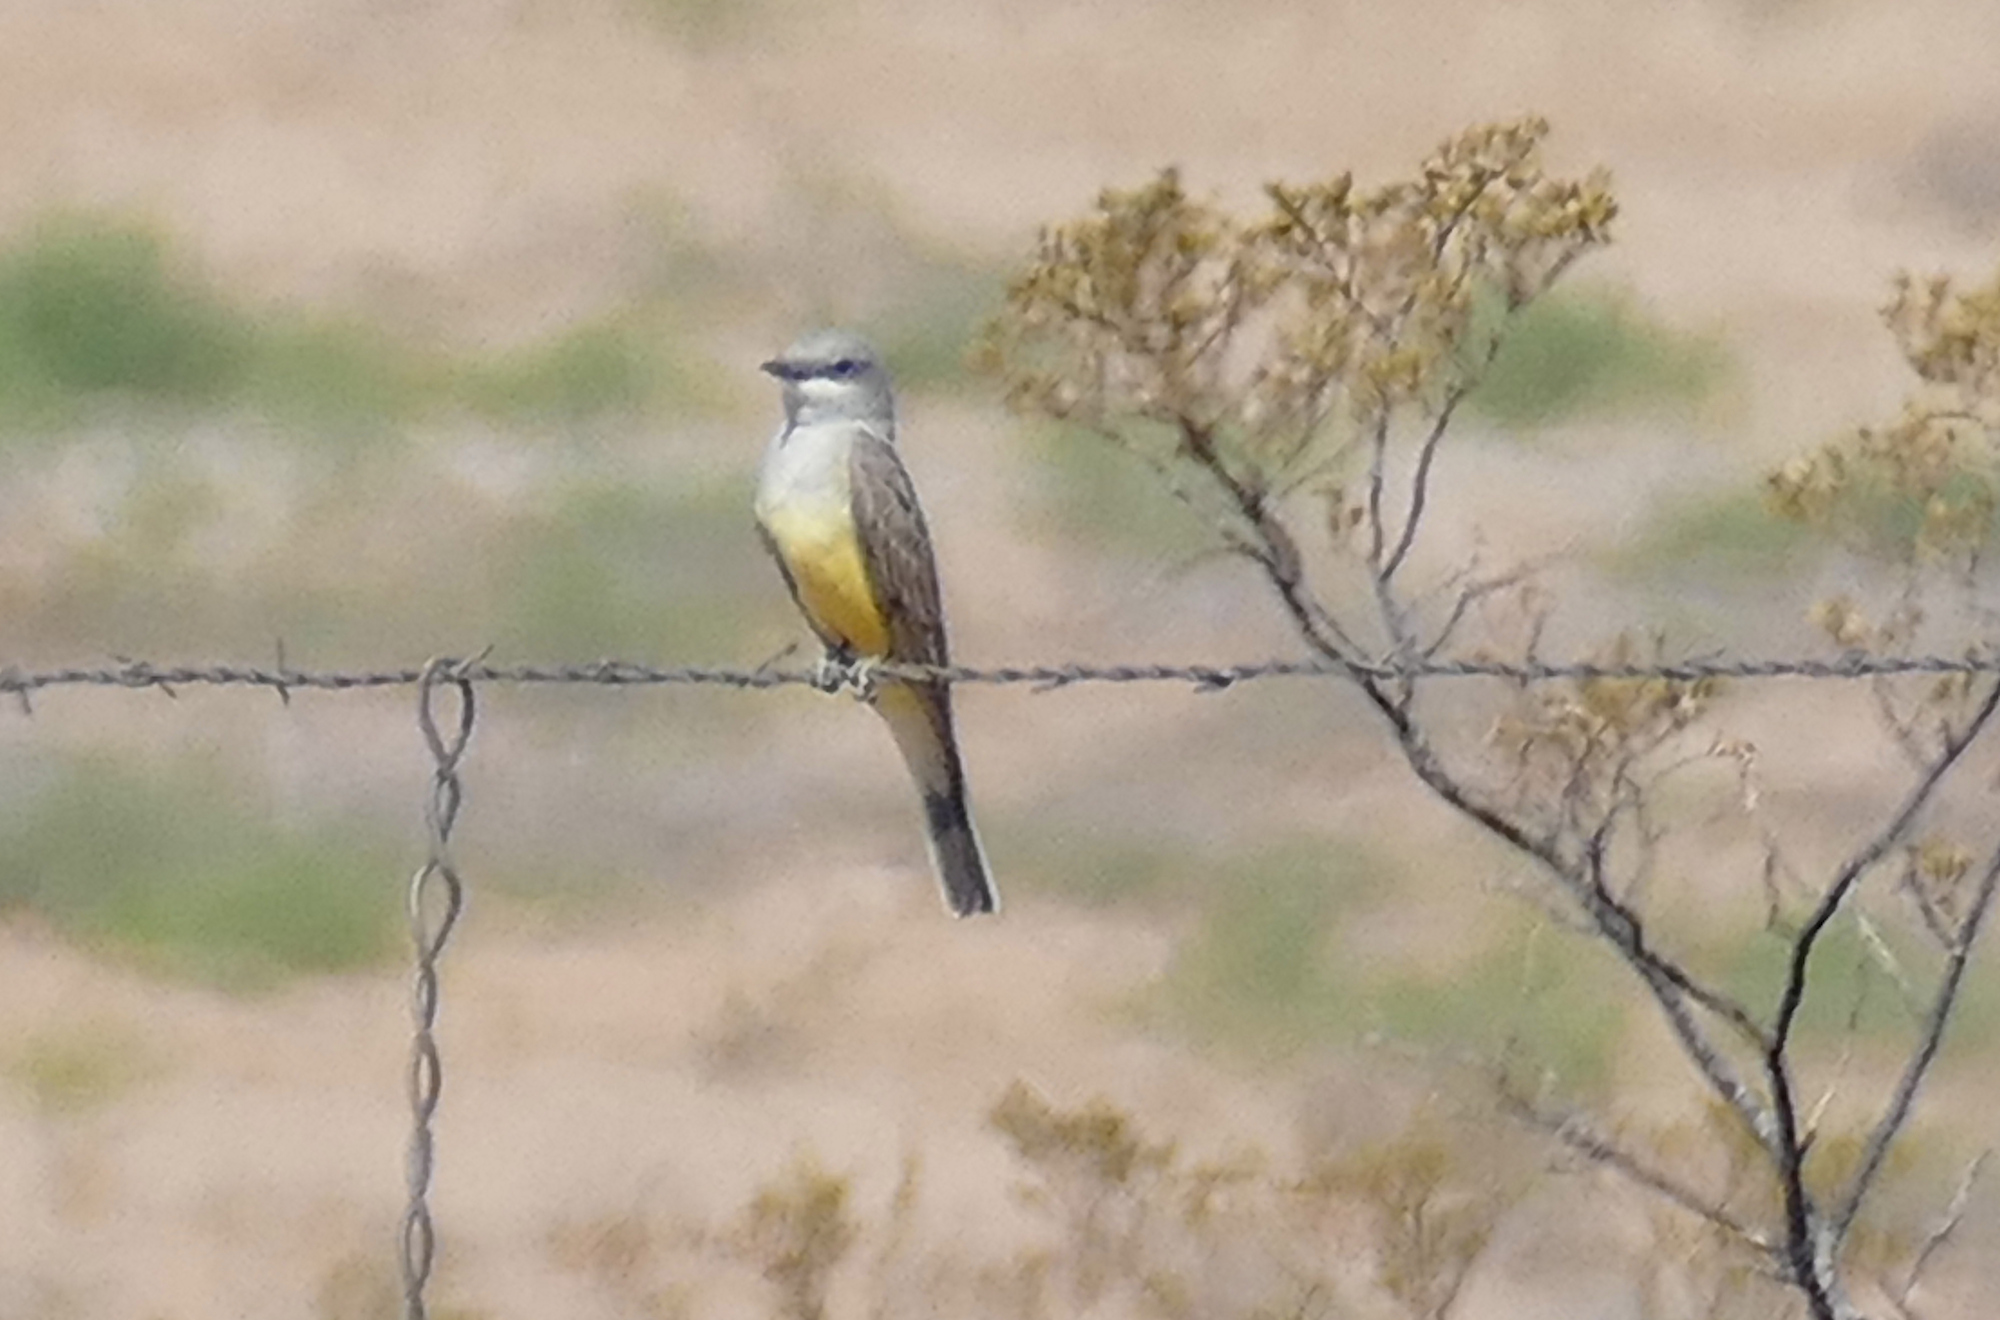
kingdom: Animalia
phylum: Chordata
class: Aves
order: Passeriformes
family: Tyrannidae
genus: Tyrannus
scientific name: Tyrannus verticalis
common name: Western kingbird
